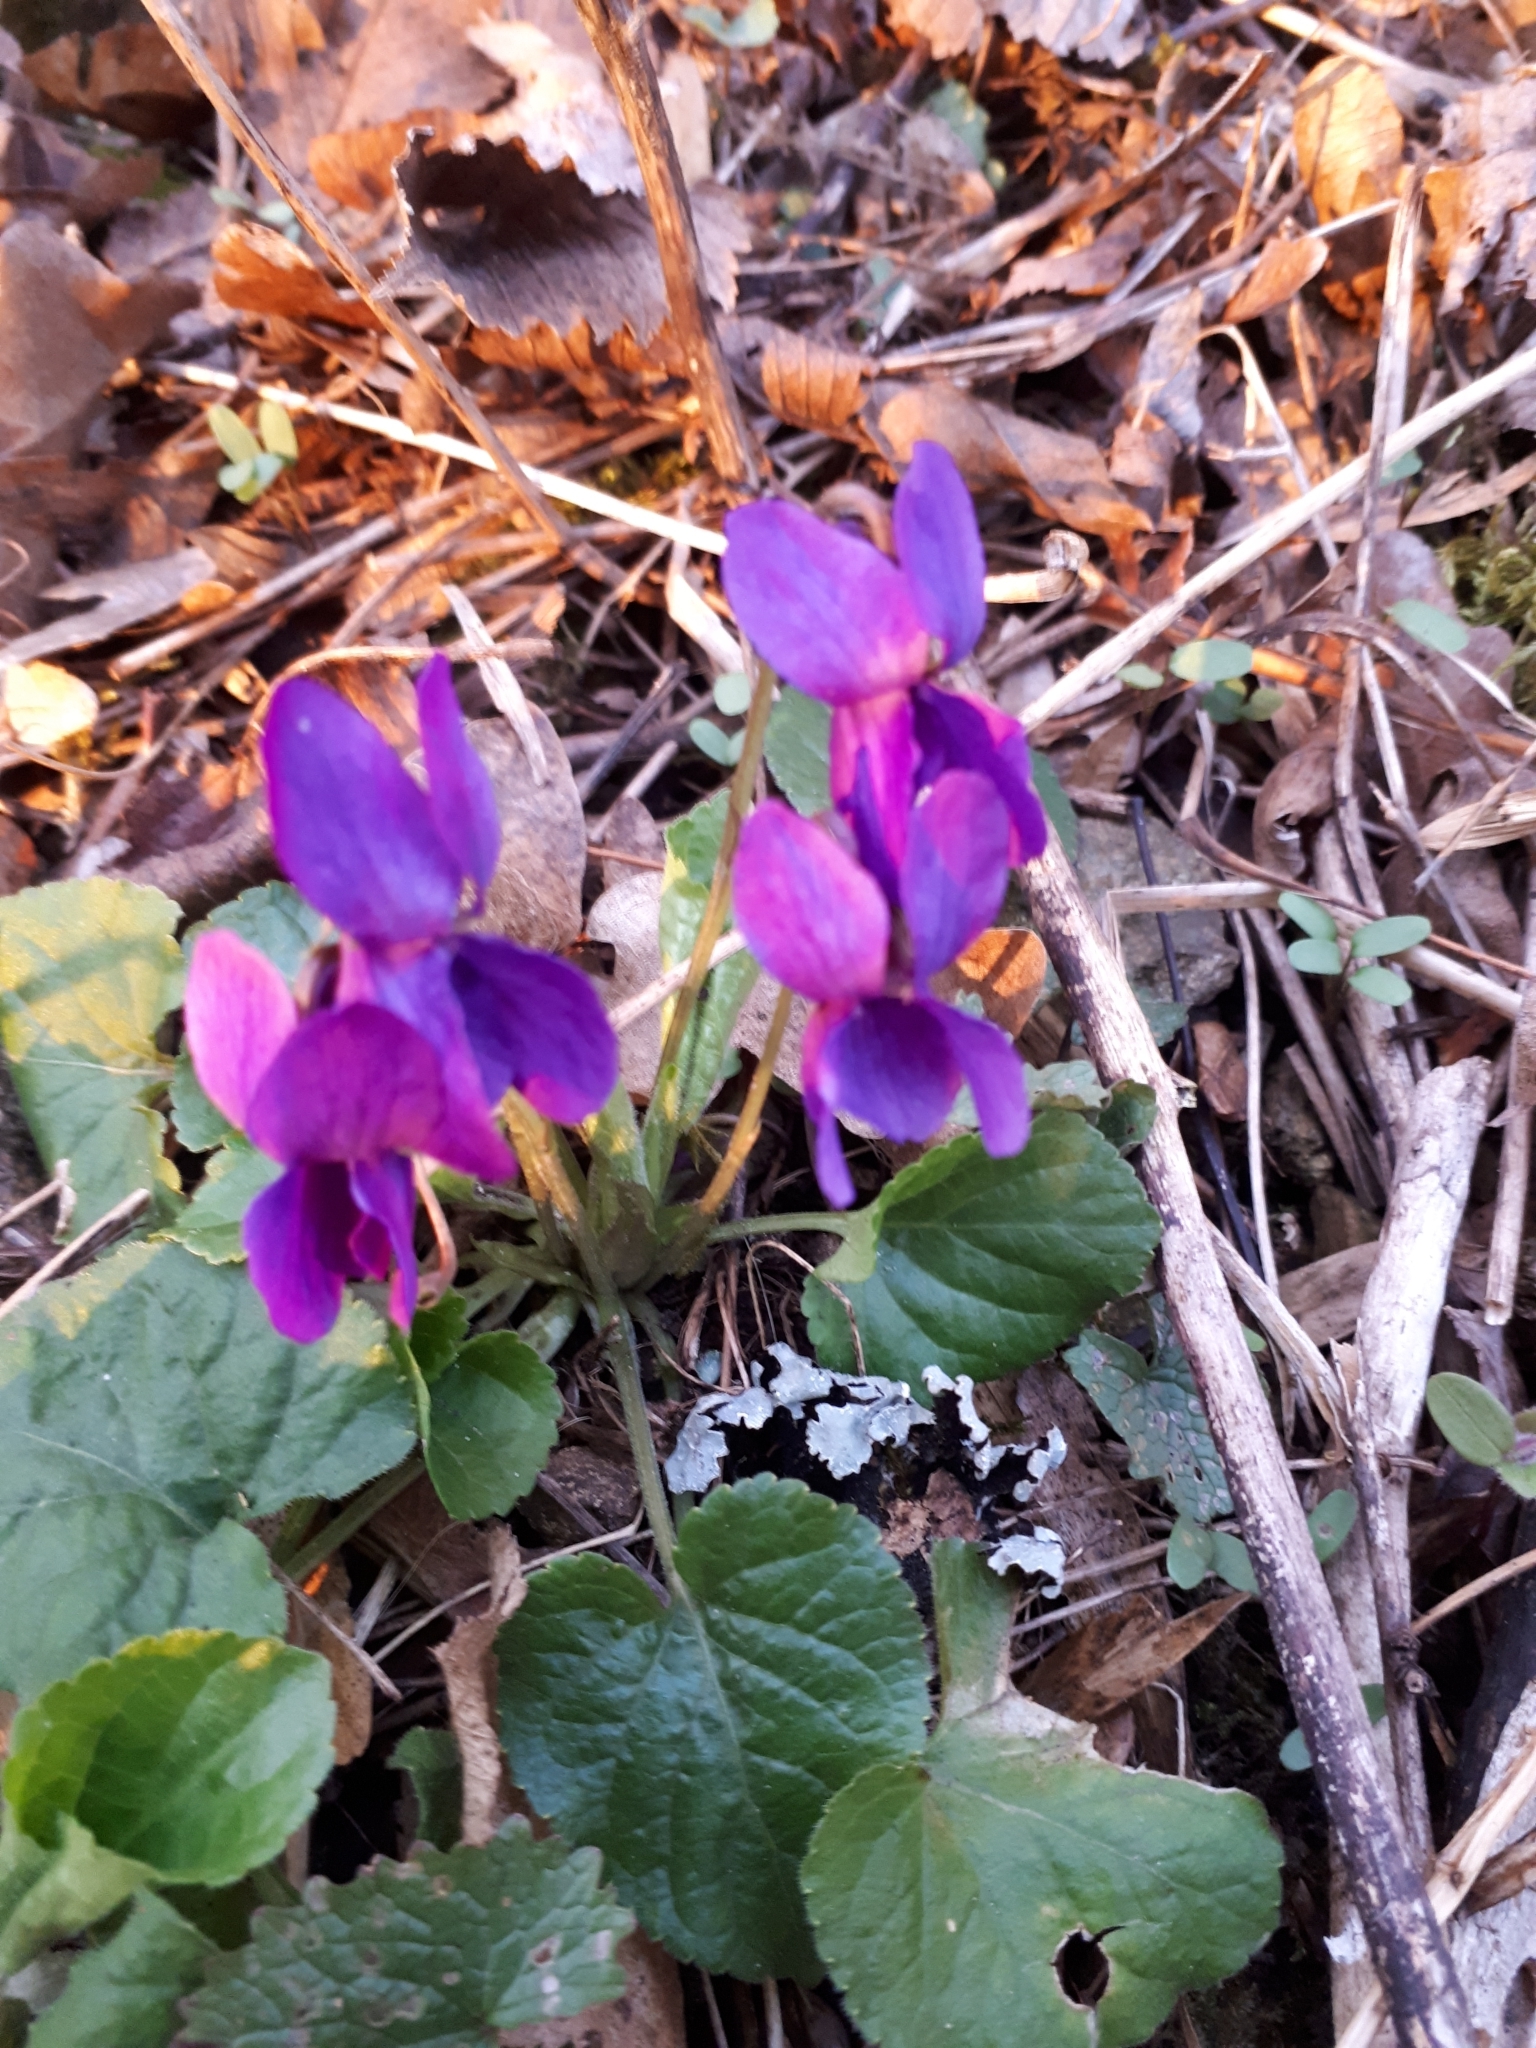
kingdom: Plantae
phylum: Tracheophyta
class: Magnoliopsida
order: Malpighiales
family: Violaceae
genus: Viola
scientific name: Viola odorata
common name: Sweet violet
